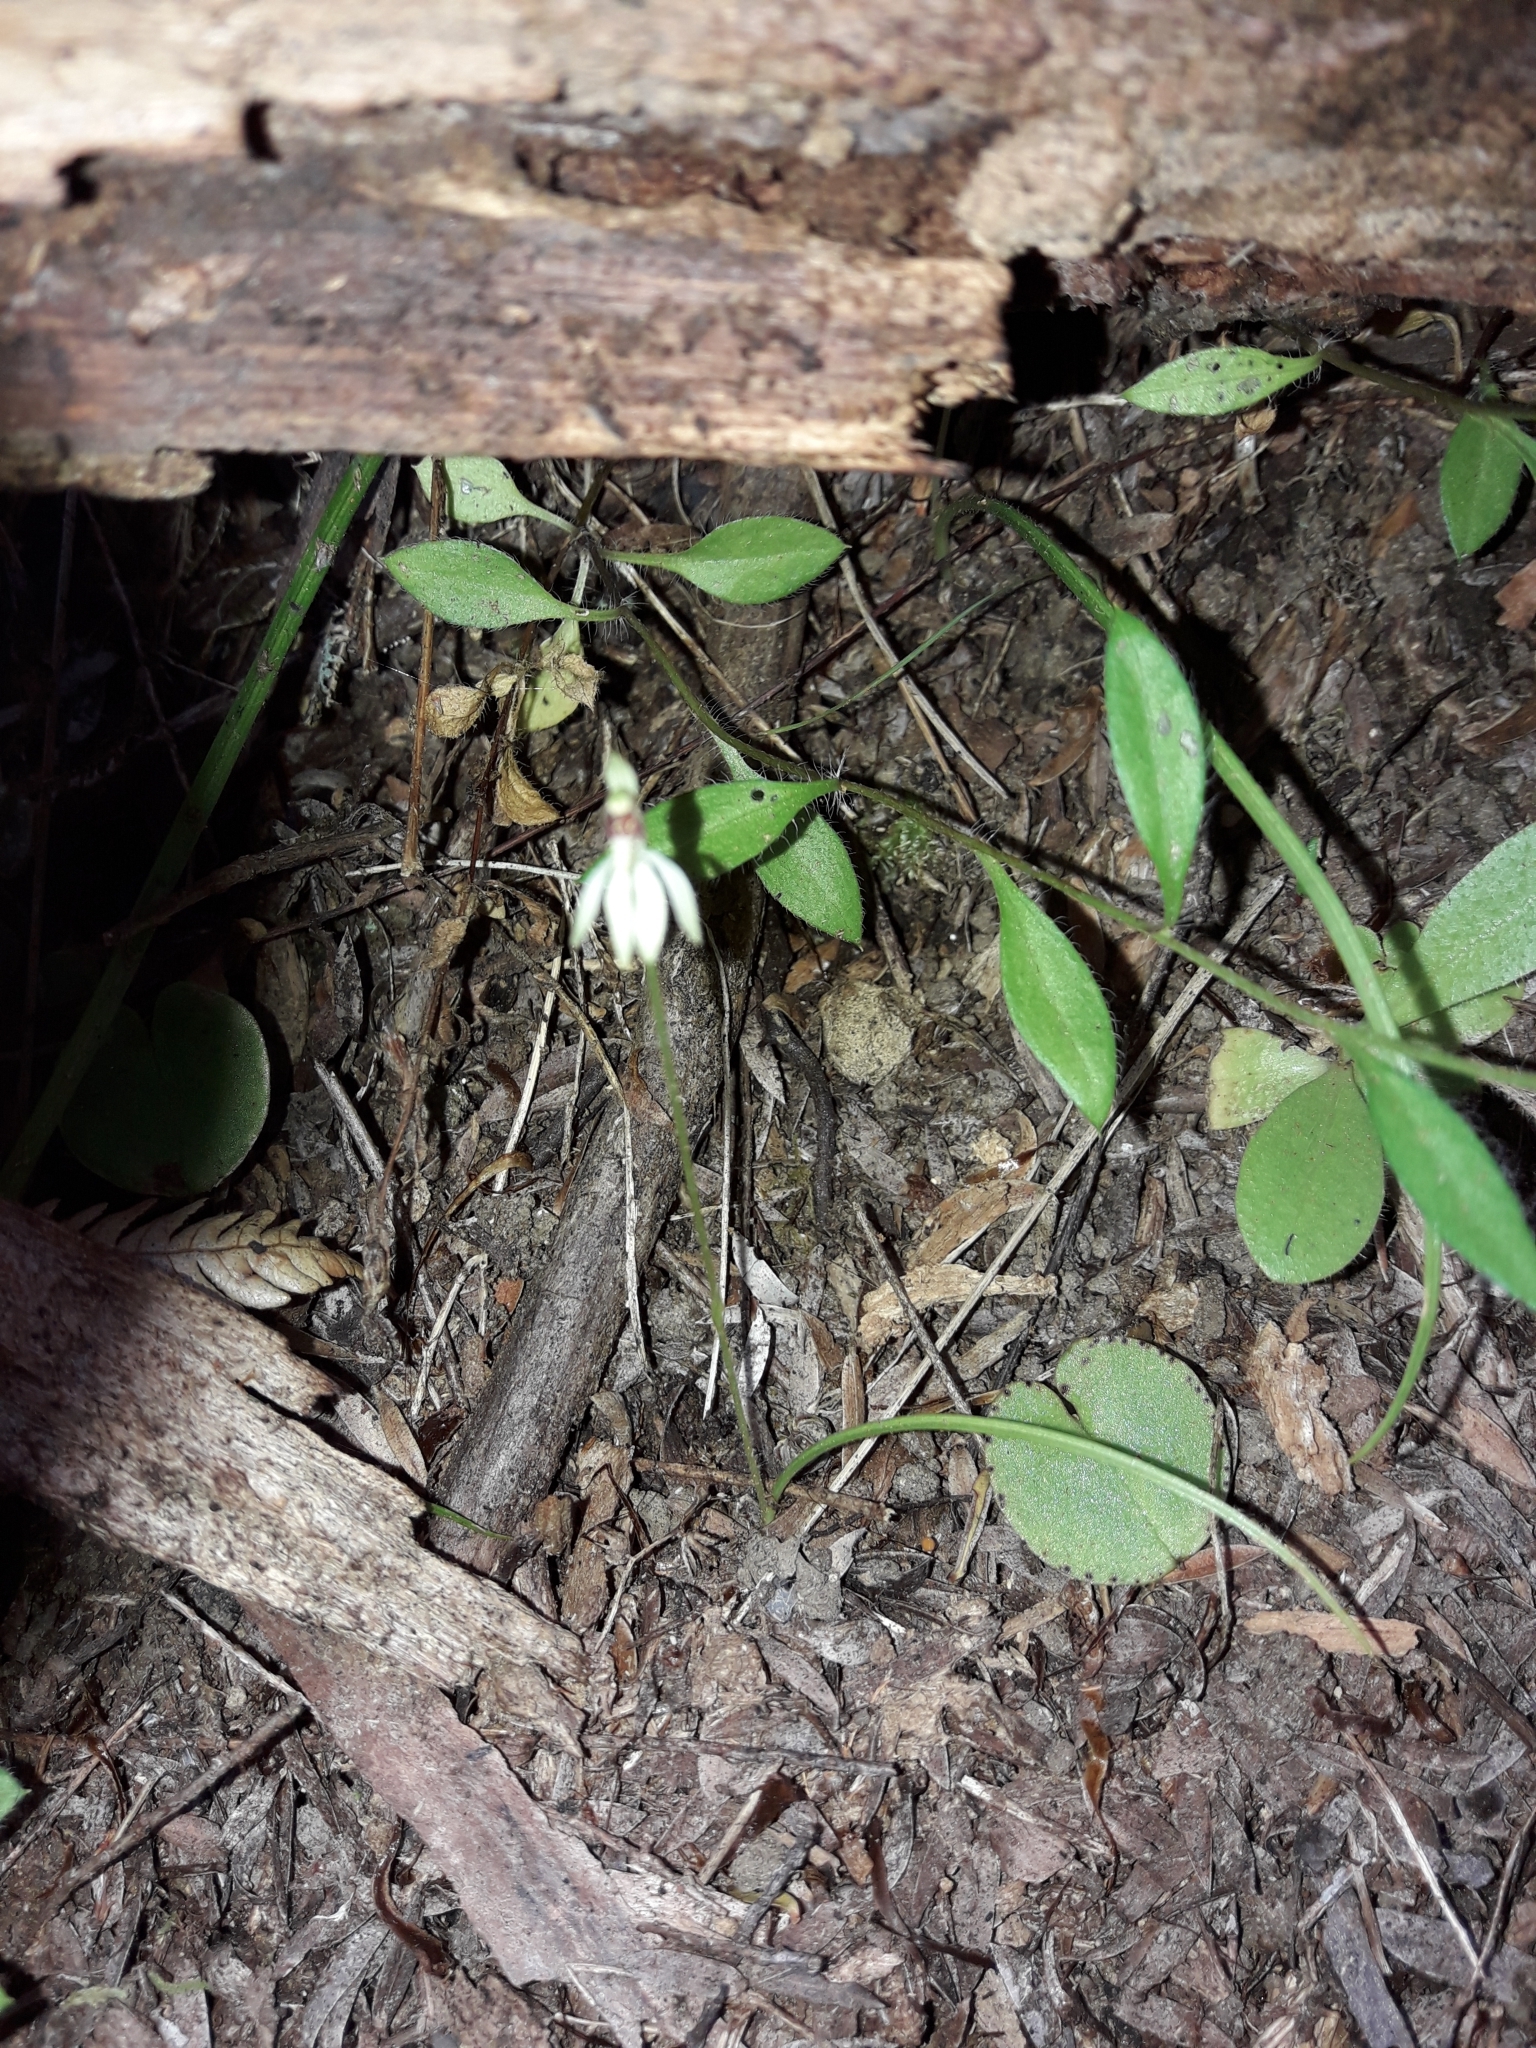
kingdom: Plantae
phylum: Tracheophyta
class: Liliopsida
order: Asparagales
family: Orchidaceae
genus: Caladenia
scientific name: Caladenia chlorostyla
